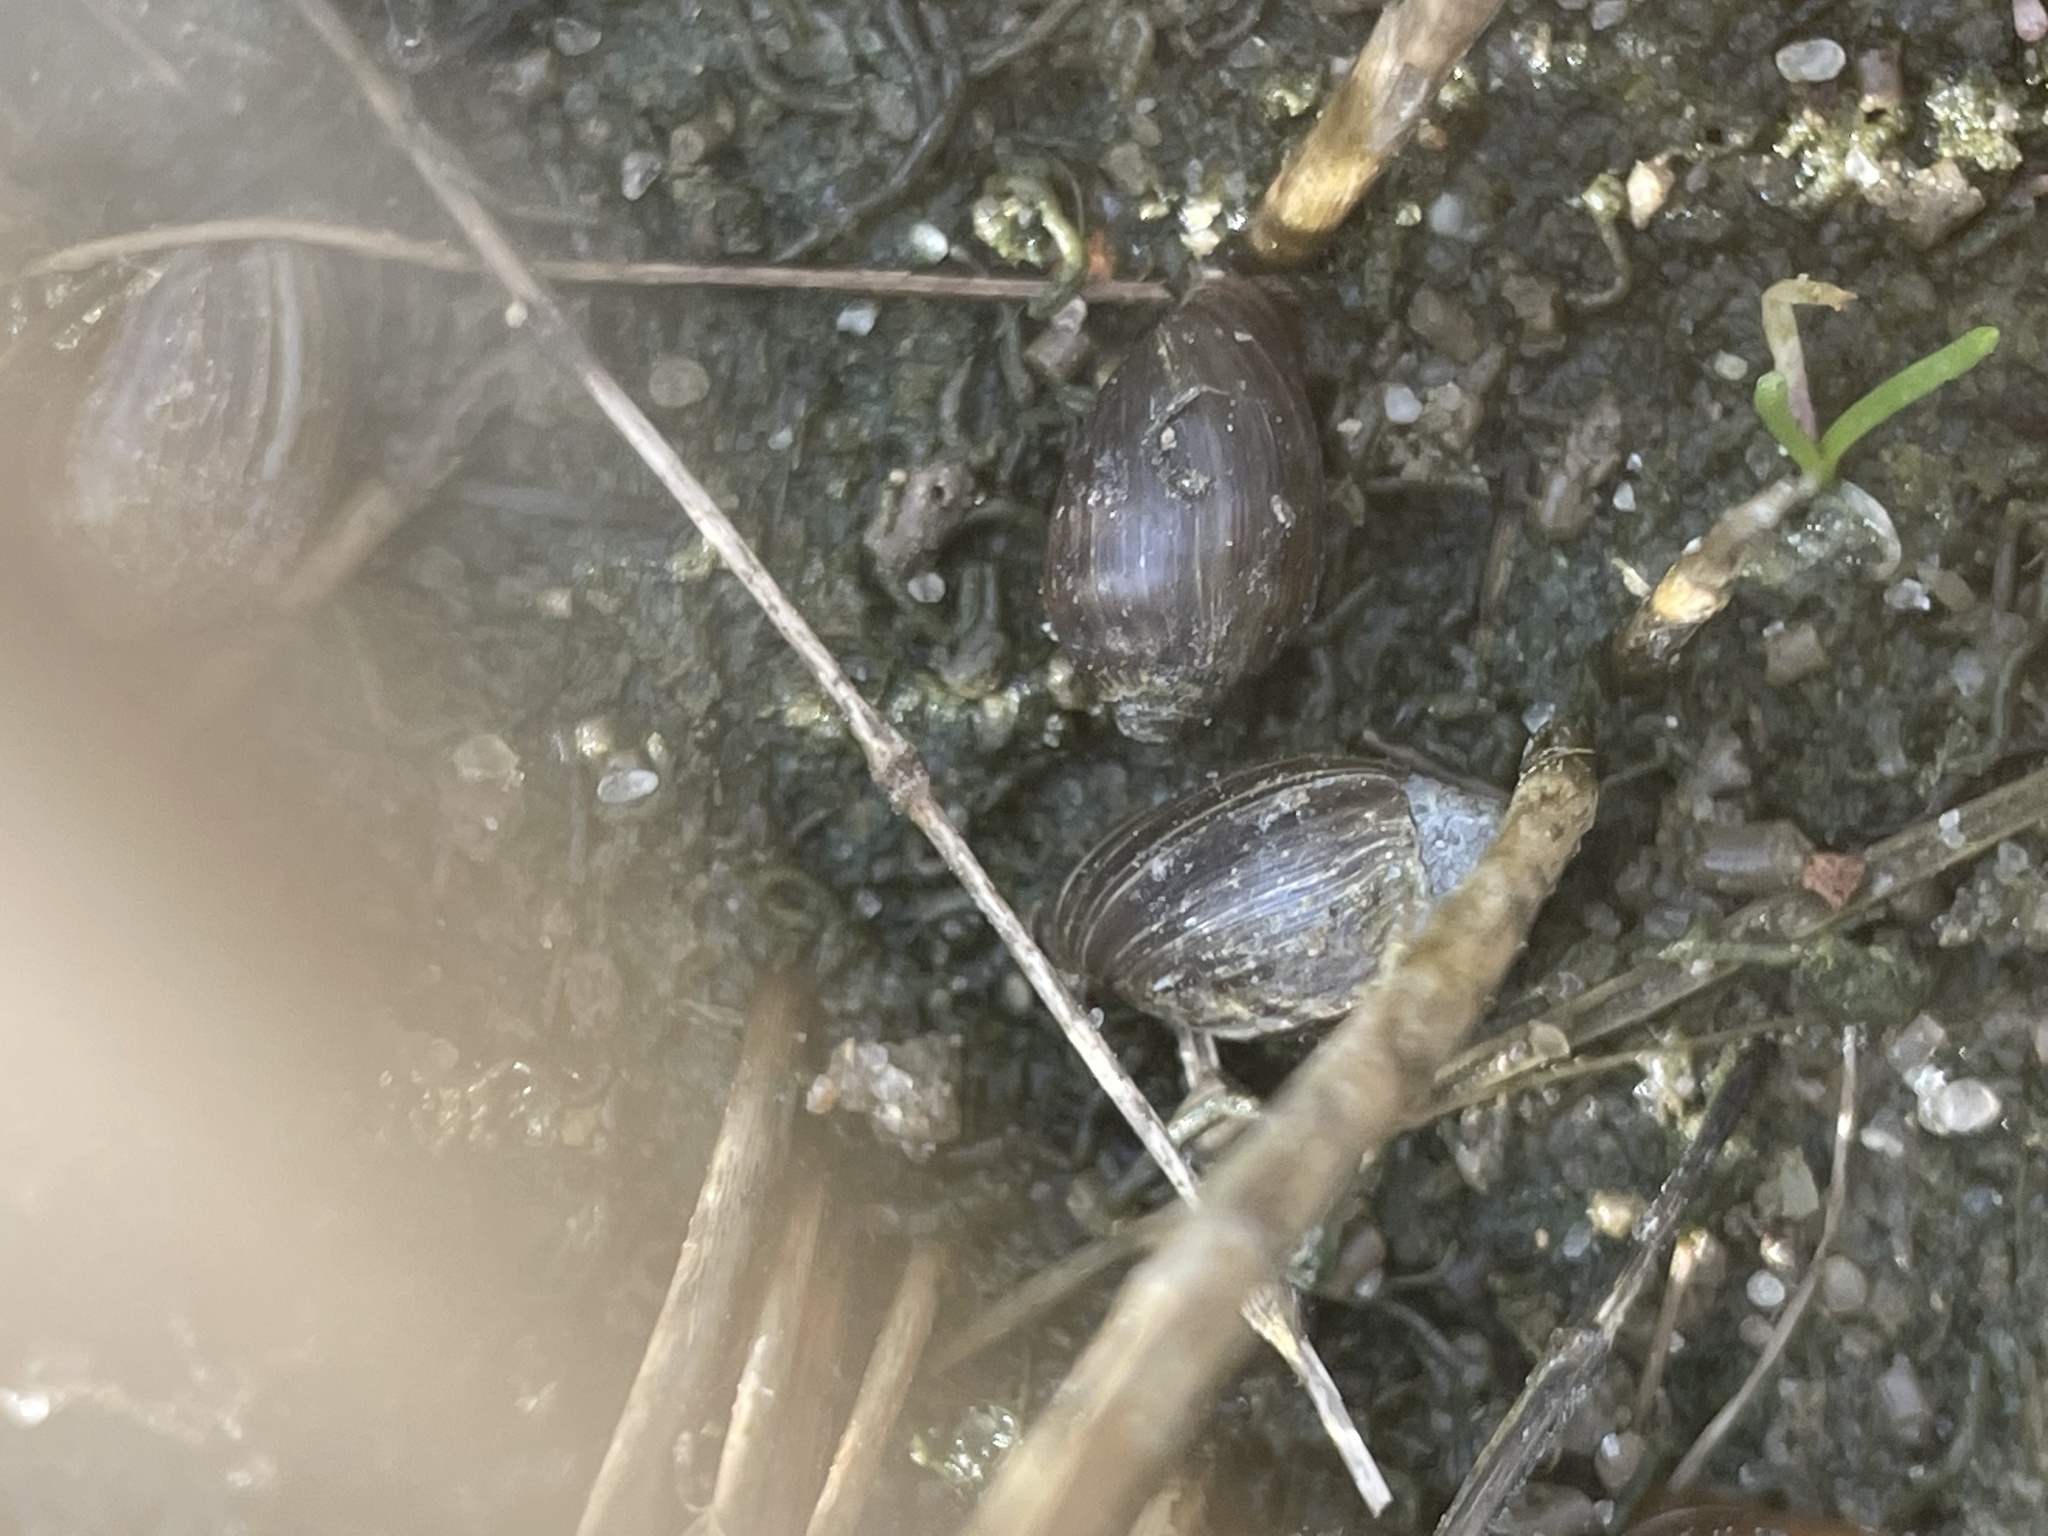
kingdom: Animalia
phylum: Mollusca
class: Gastropoda
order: Ellobiida
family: Ellobiidae
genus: Melampus
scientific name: Melampus bidentatus
